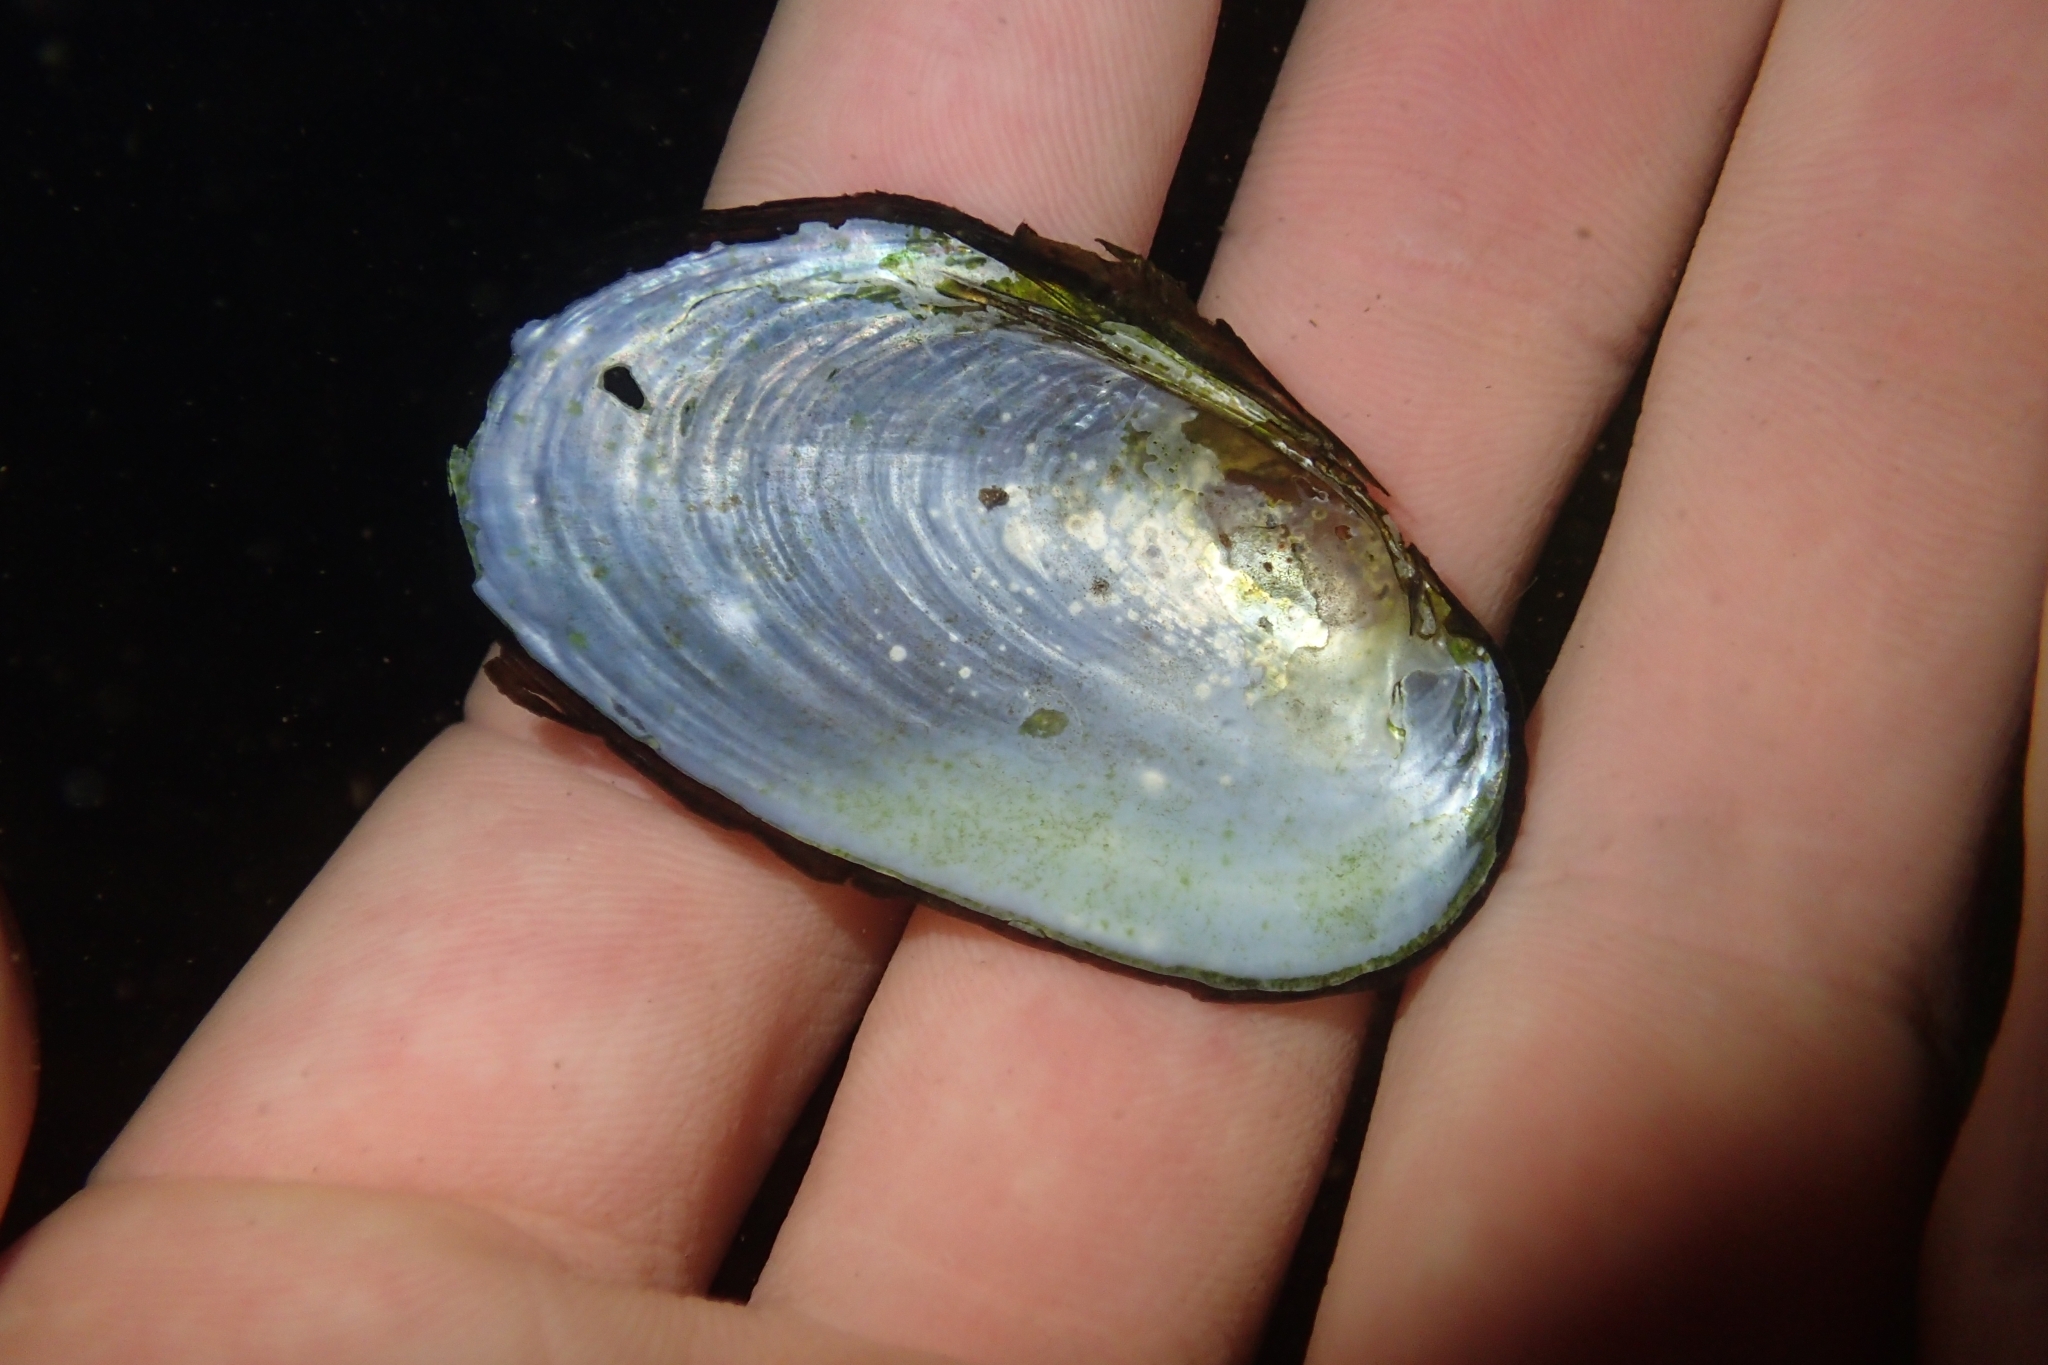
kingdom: Animalia
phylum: Mollusca
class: Bivalvia
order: Unionida
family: Hyriidae
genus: Echyridella
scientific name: Echyridella menziesii
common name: New zealand freshwater mussel
